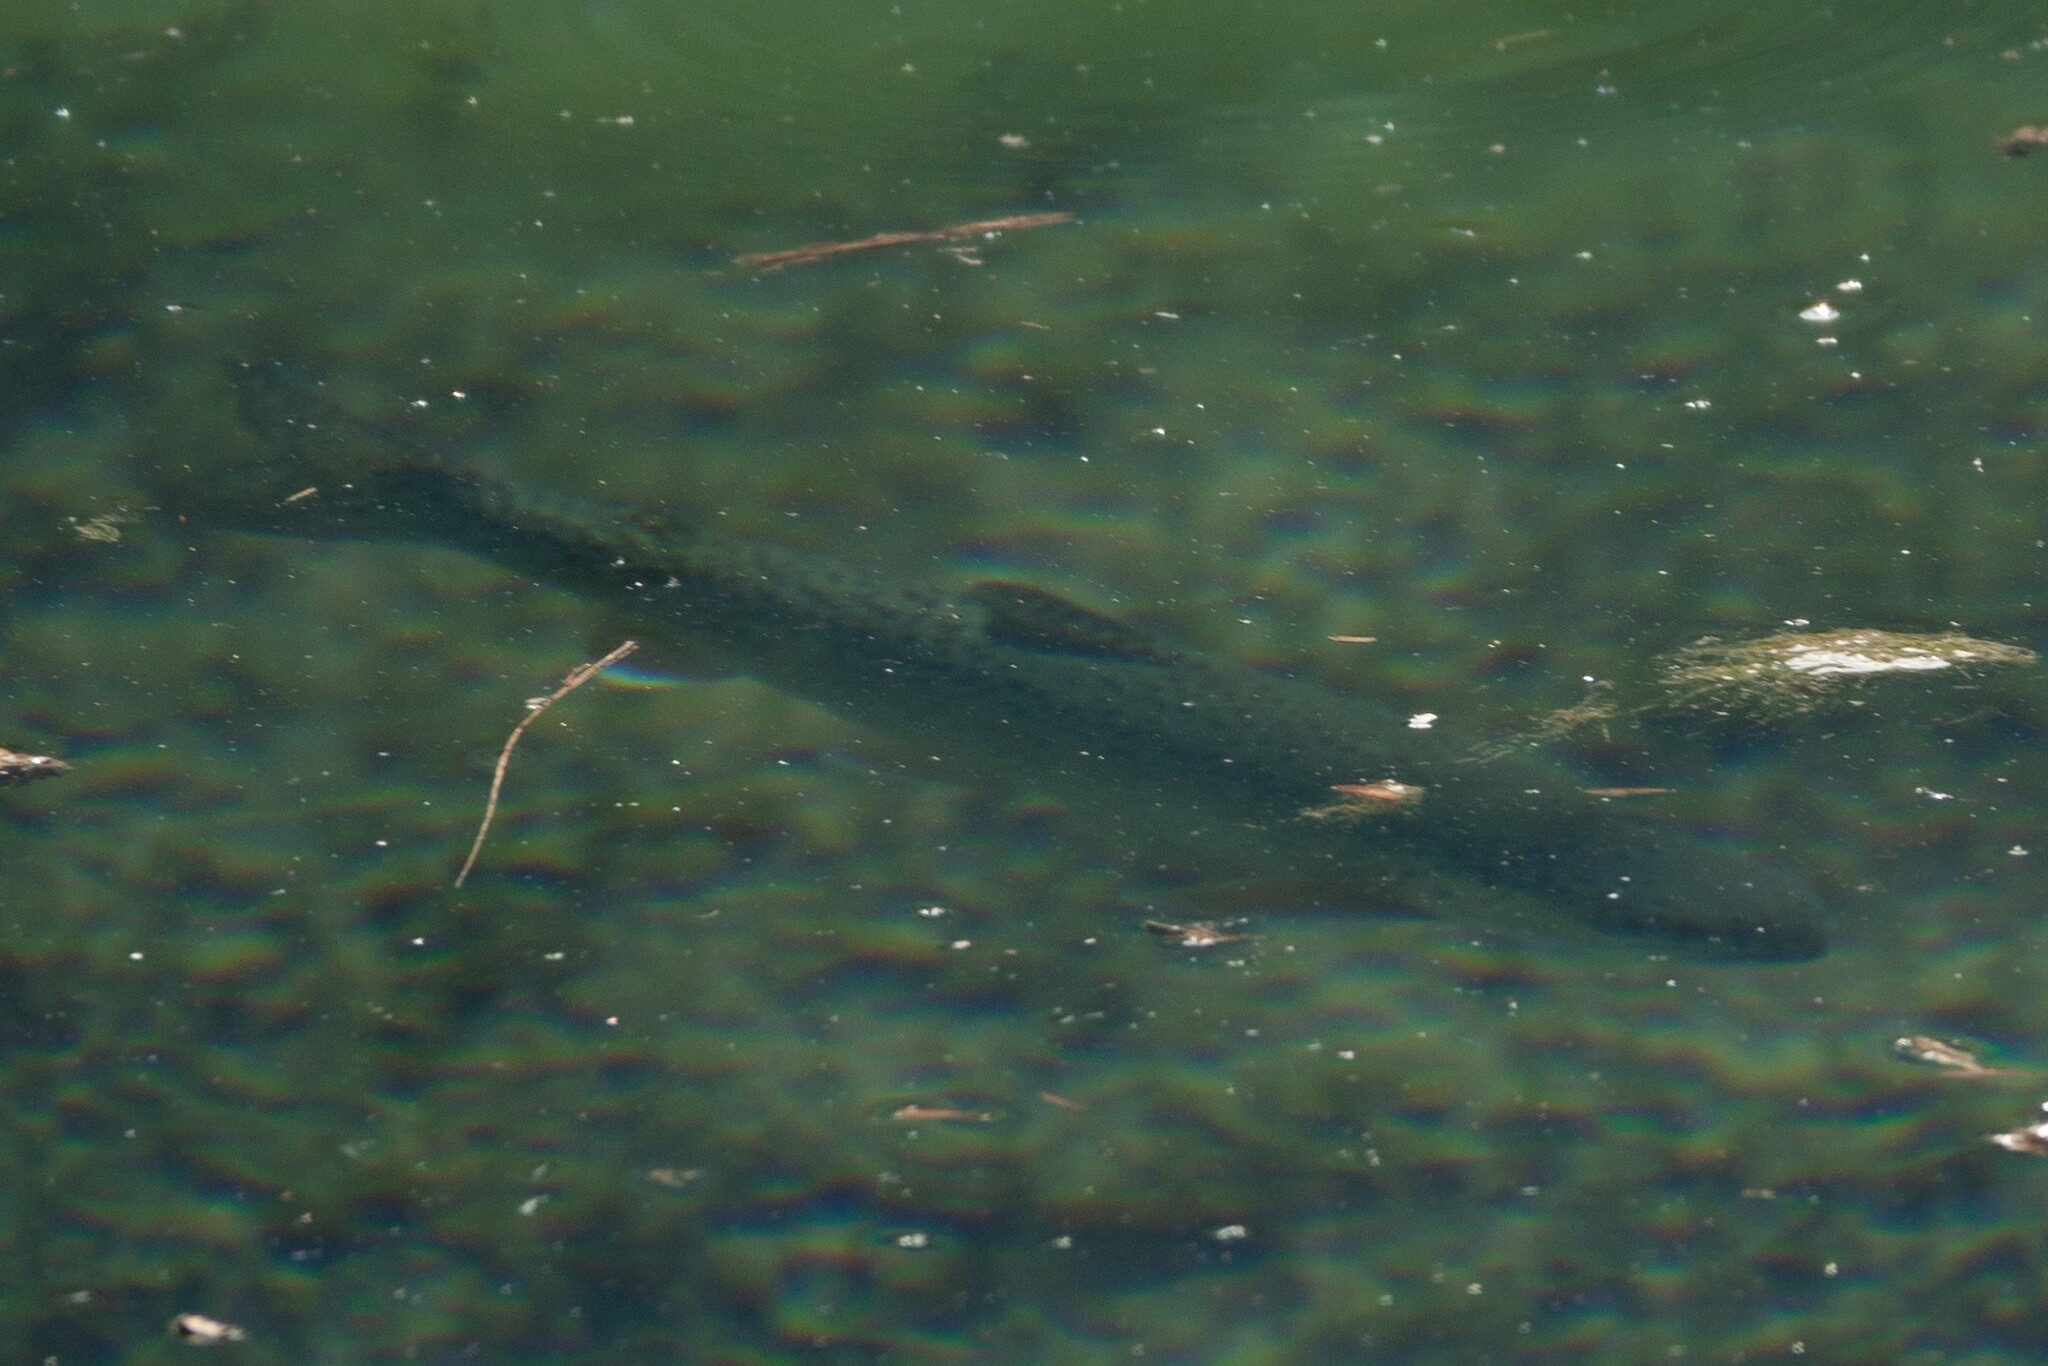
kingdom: Animalia
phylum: Chordata
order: Salmoniformes
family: Salmonidae
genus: Oncorhynchus
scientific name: Oncorhynchus mykiss
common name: Rainbow trout
